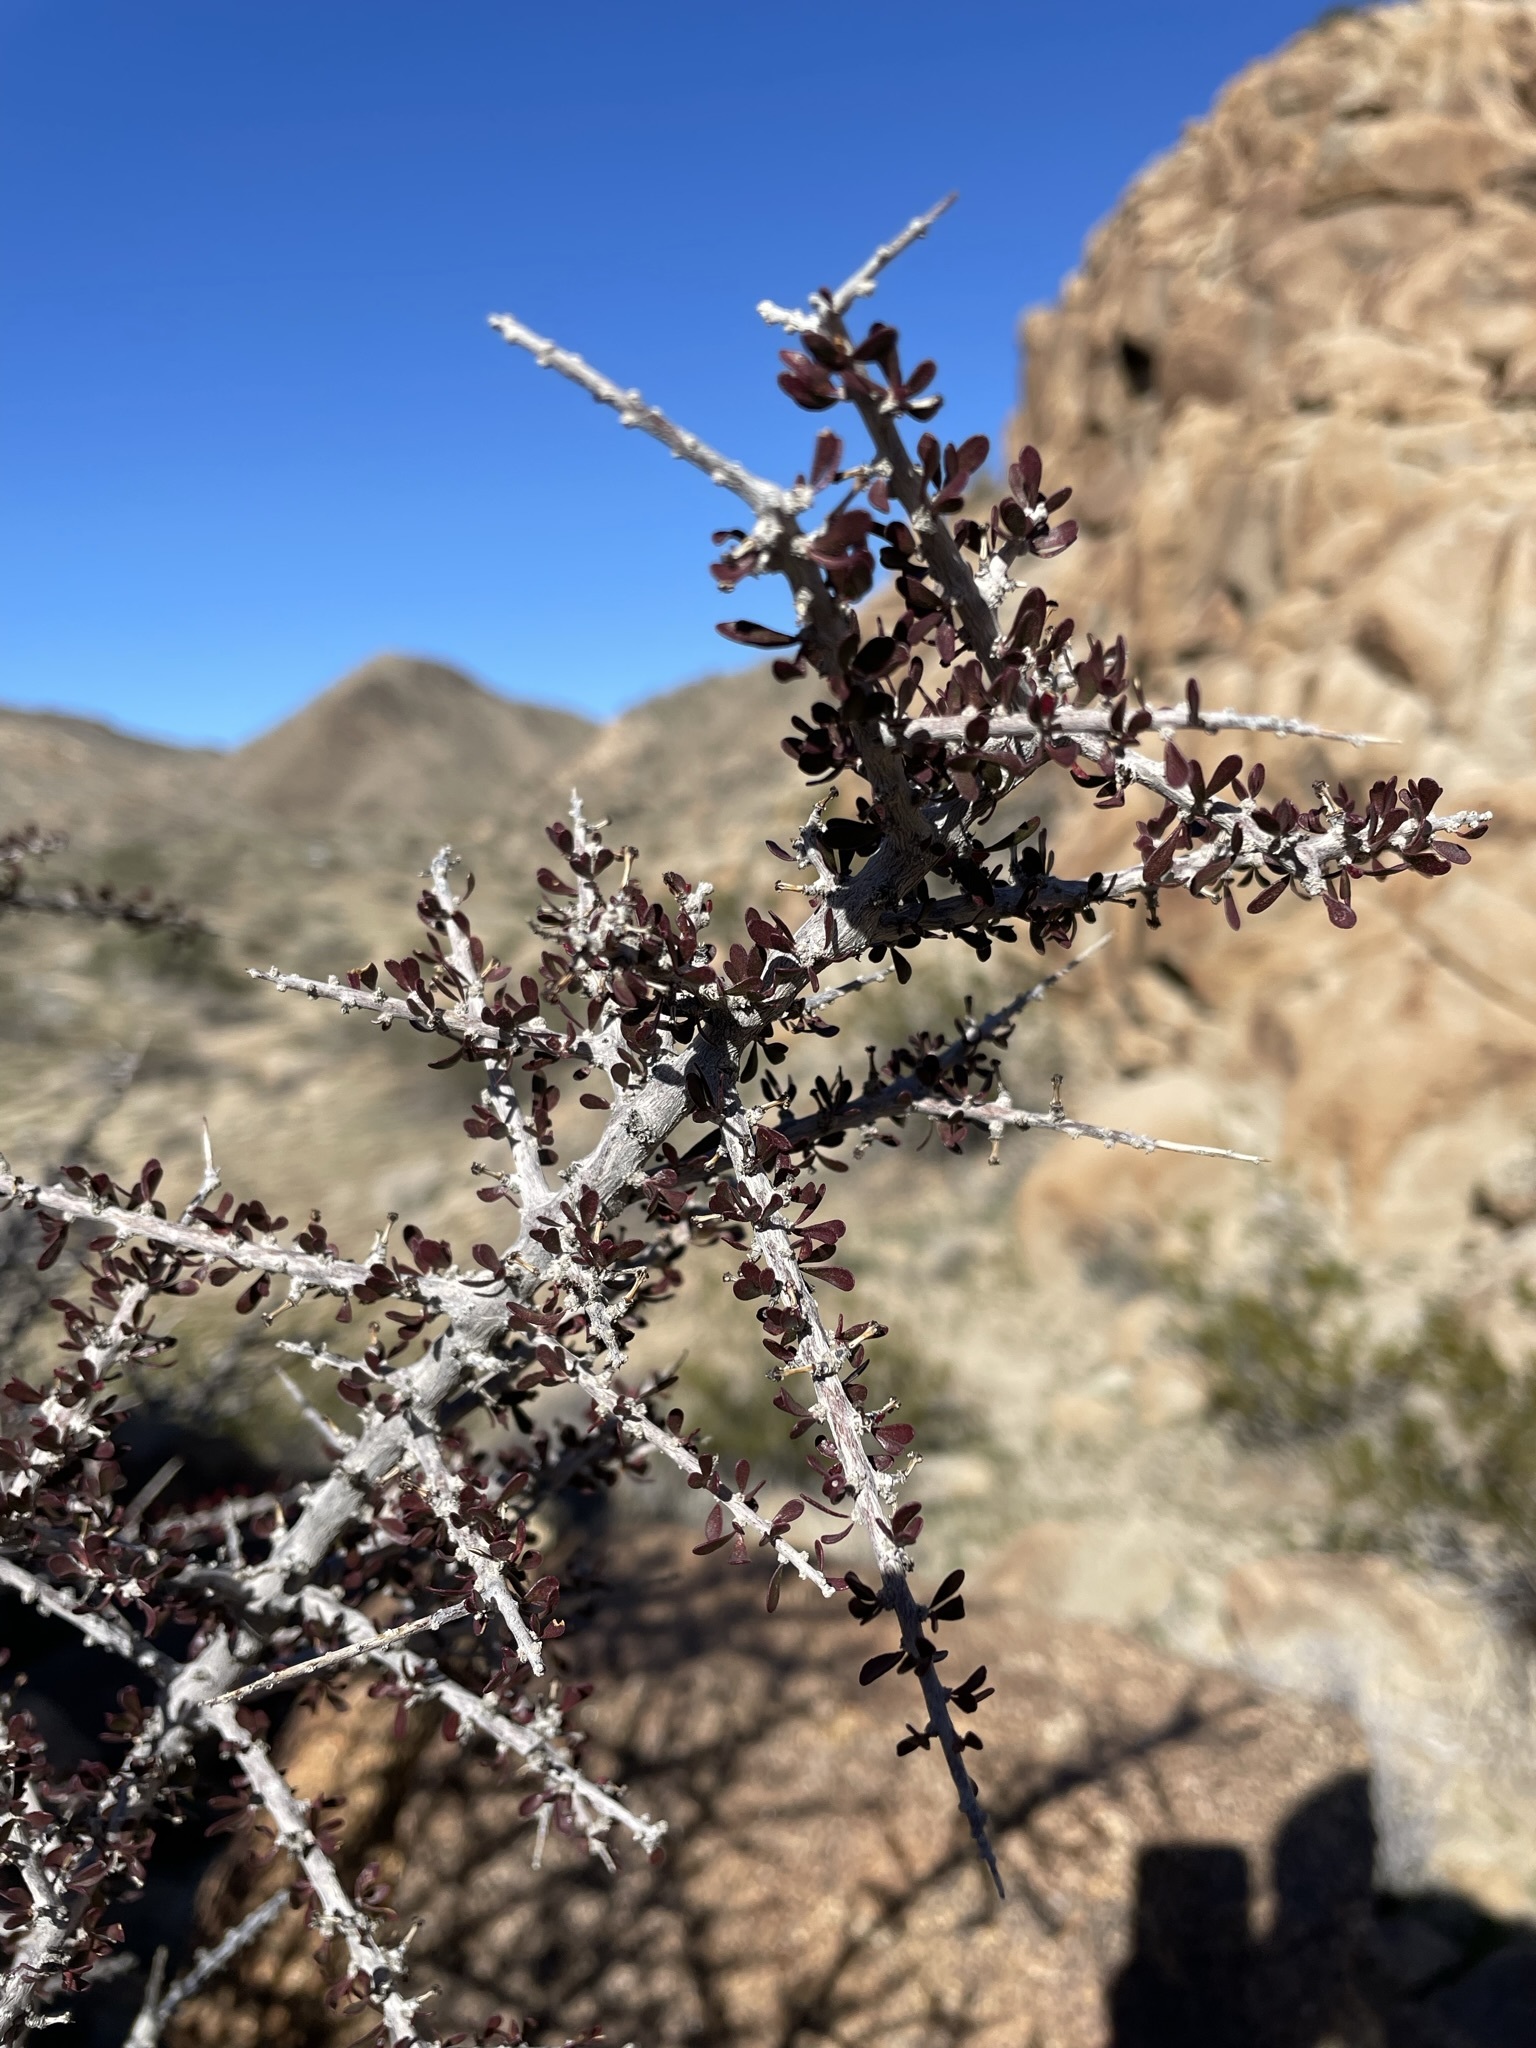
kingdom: Plantae
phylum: Tracheophyta
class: Magnoliopsida
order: Malpighiales
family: Picrodendraceae
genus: Tetracoccus
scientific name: Tetracoccus hallii
